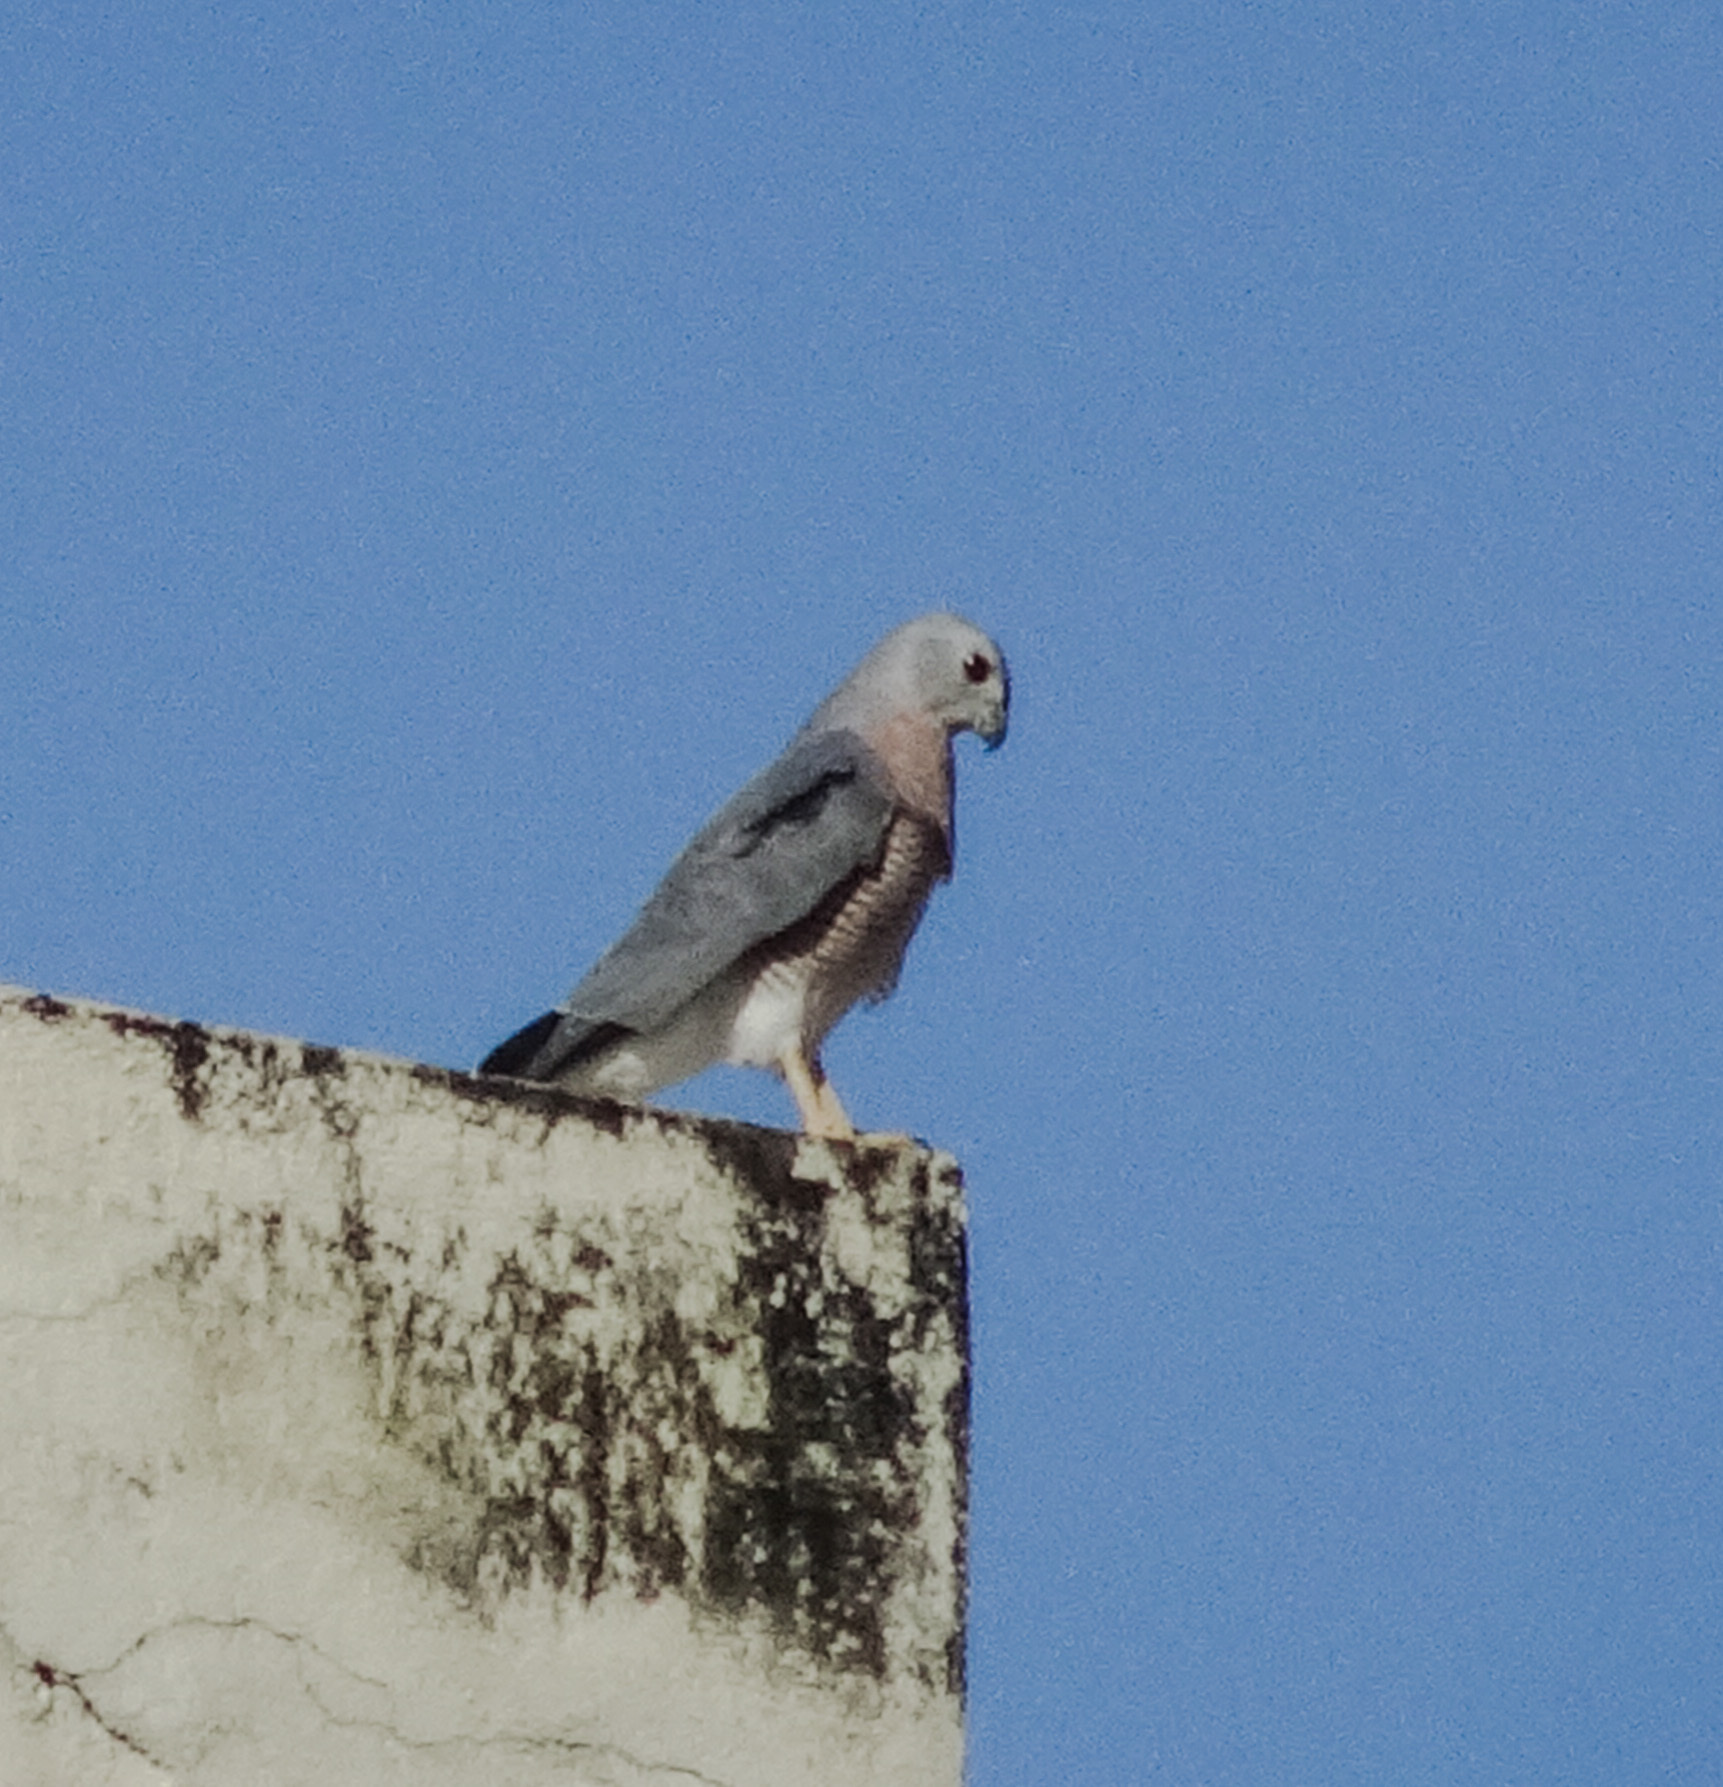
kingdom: Animalia
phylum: Chordata
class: Aves
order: Accipitriformes
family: Accipitridae
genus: Accipiter
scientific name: Accipiter badius
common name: Shikra
